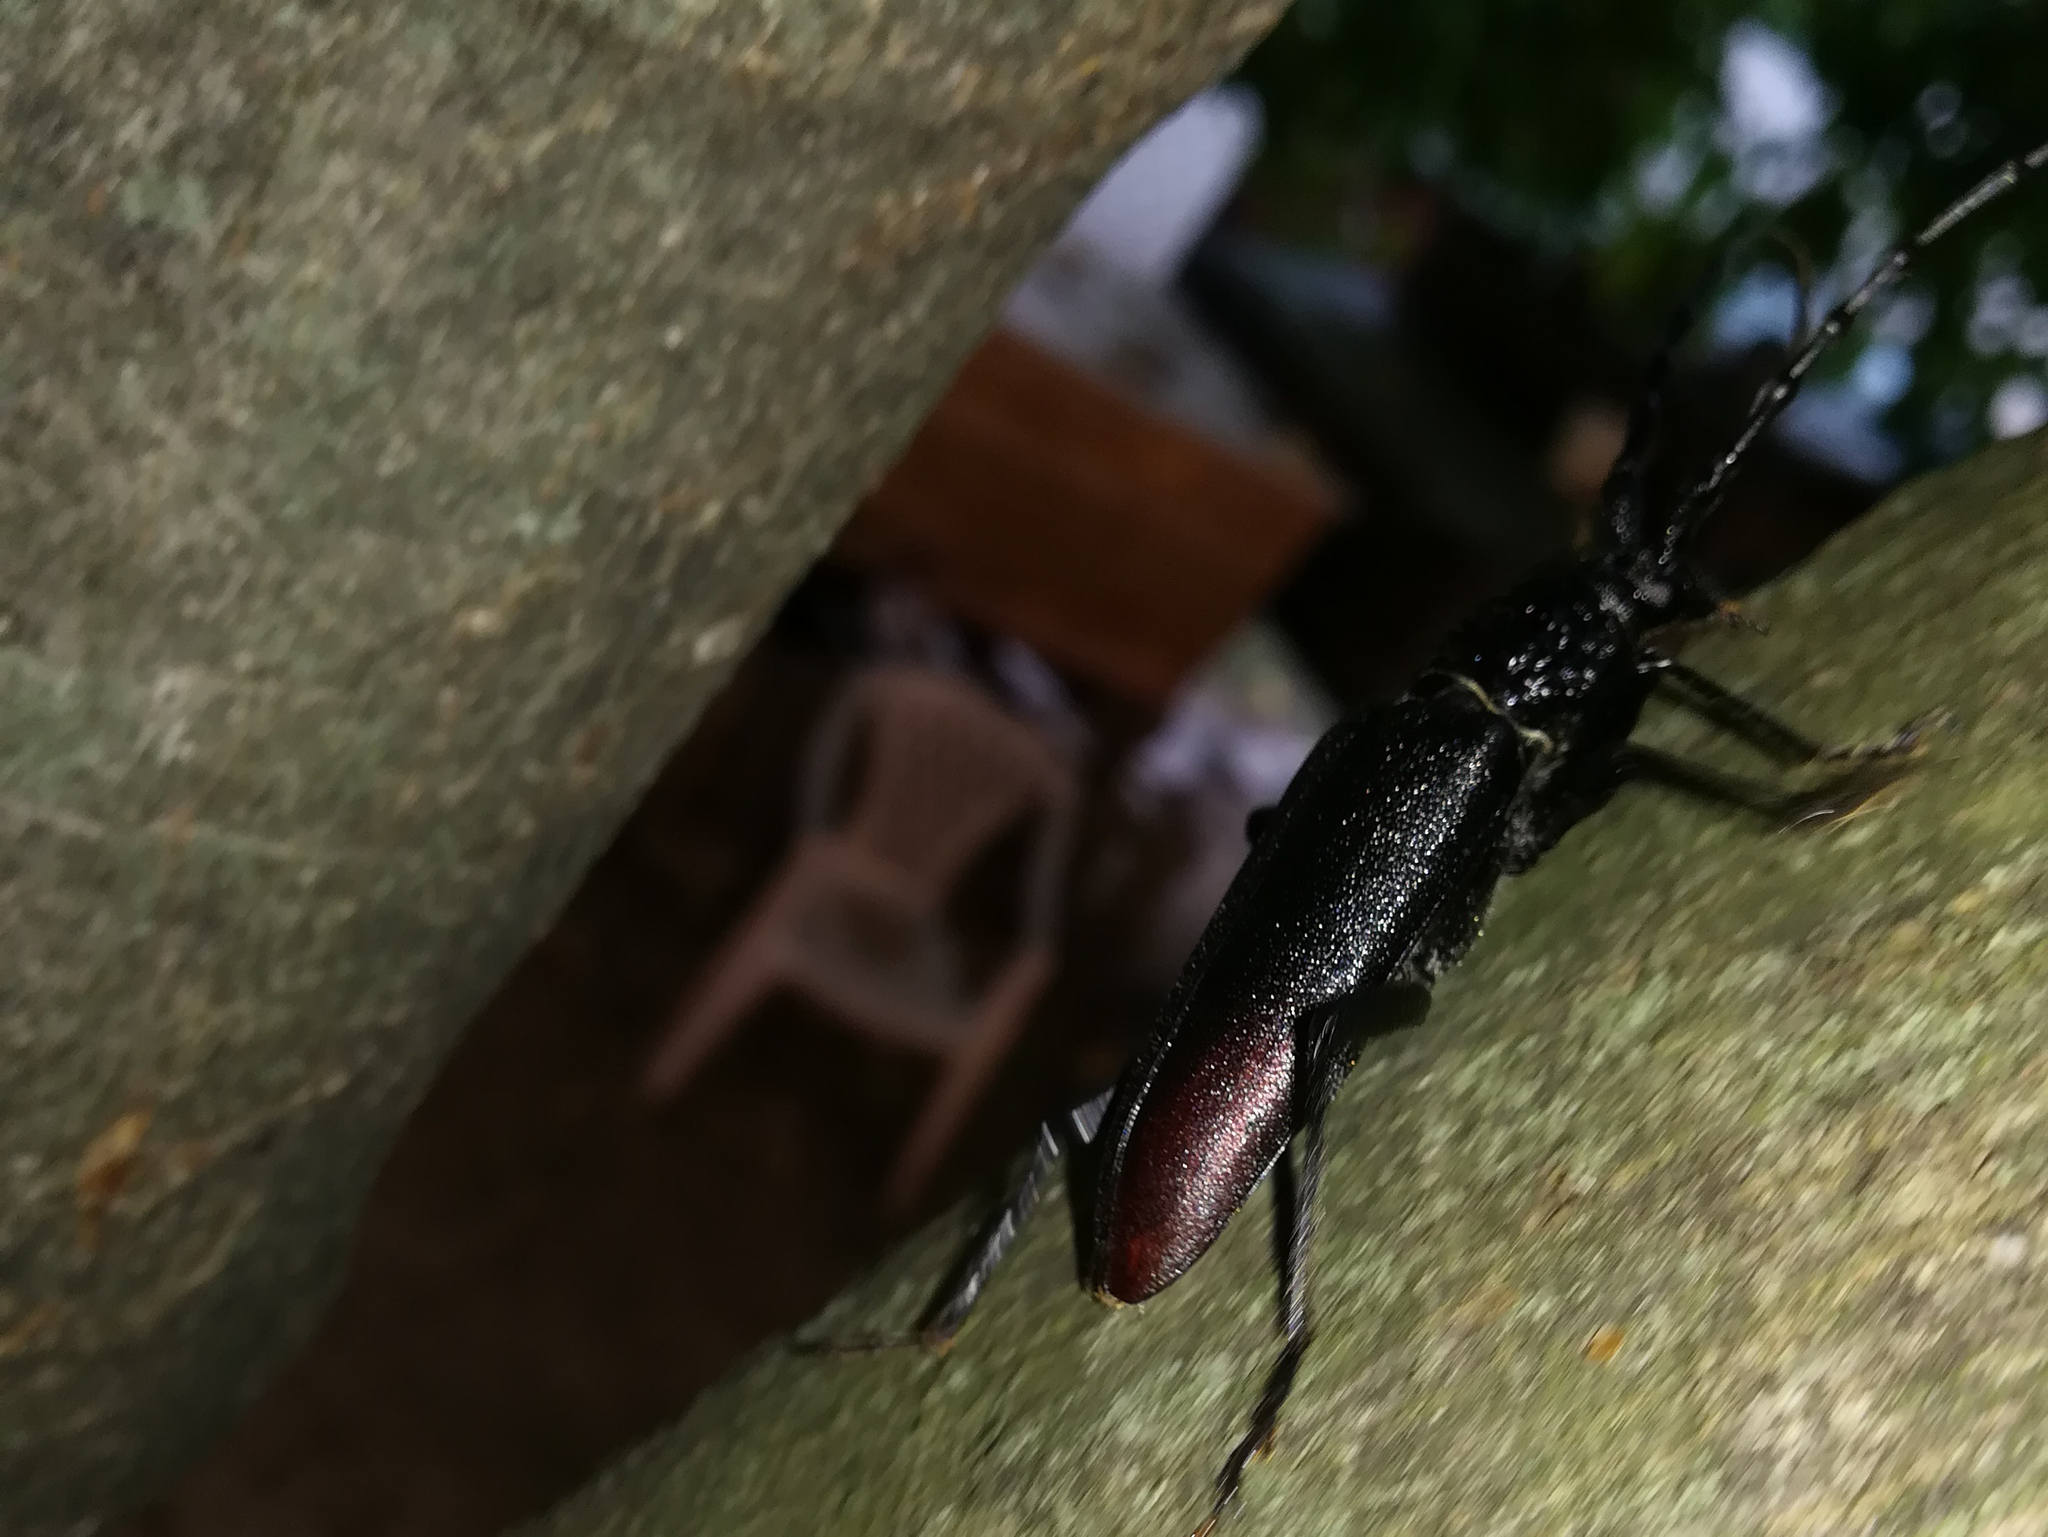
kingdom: Animalia
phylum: Arthropoda
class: Insecta
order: Coleoptera
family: Cerambycidae
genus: Cerambyx
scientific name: Cerambyx cerdo
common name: Cerambyx longicorn
